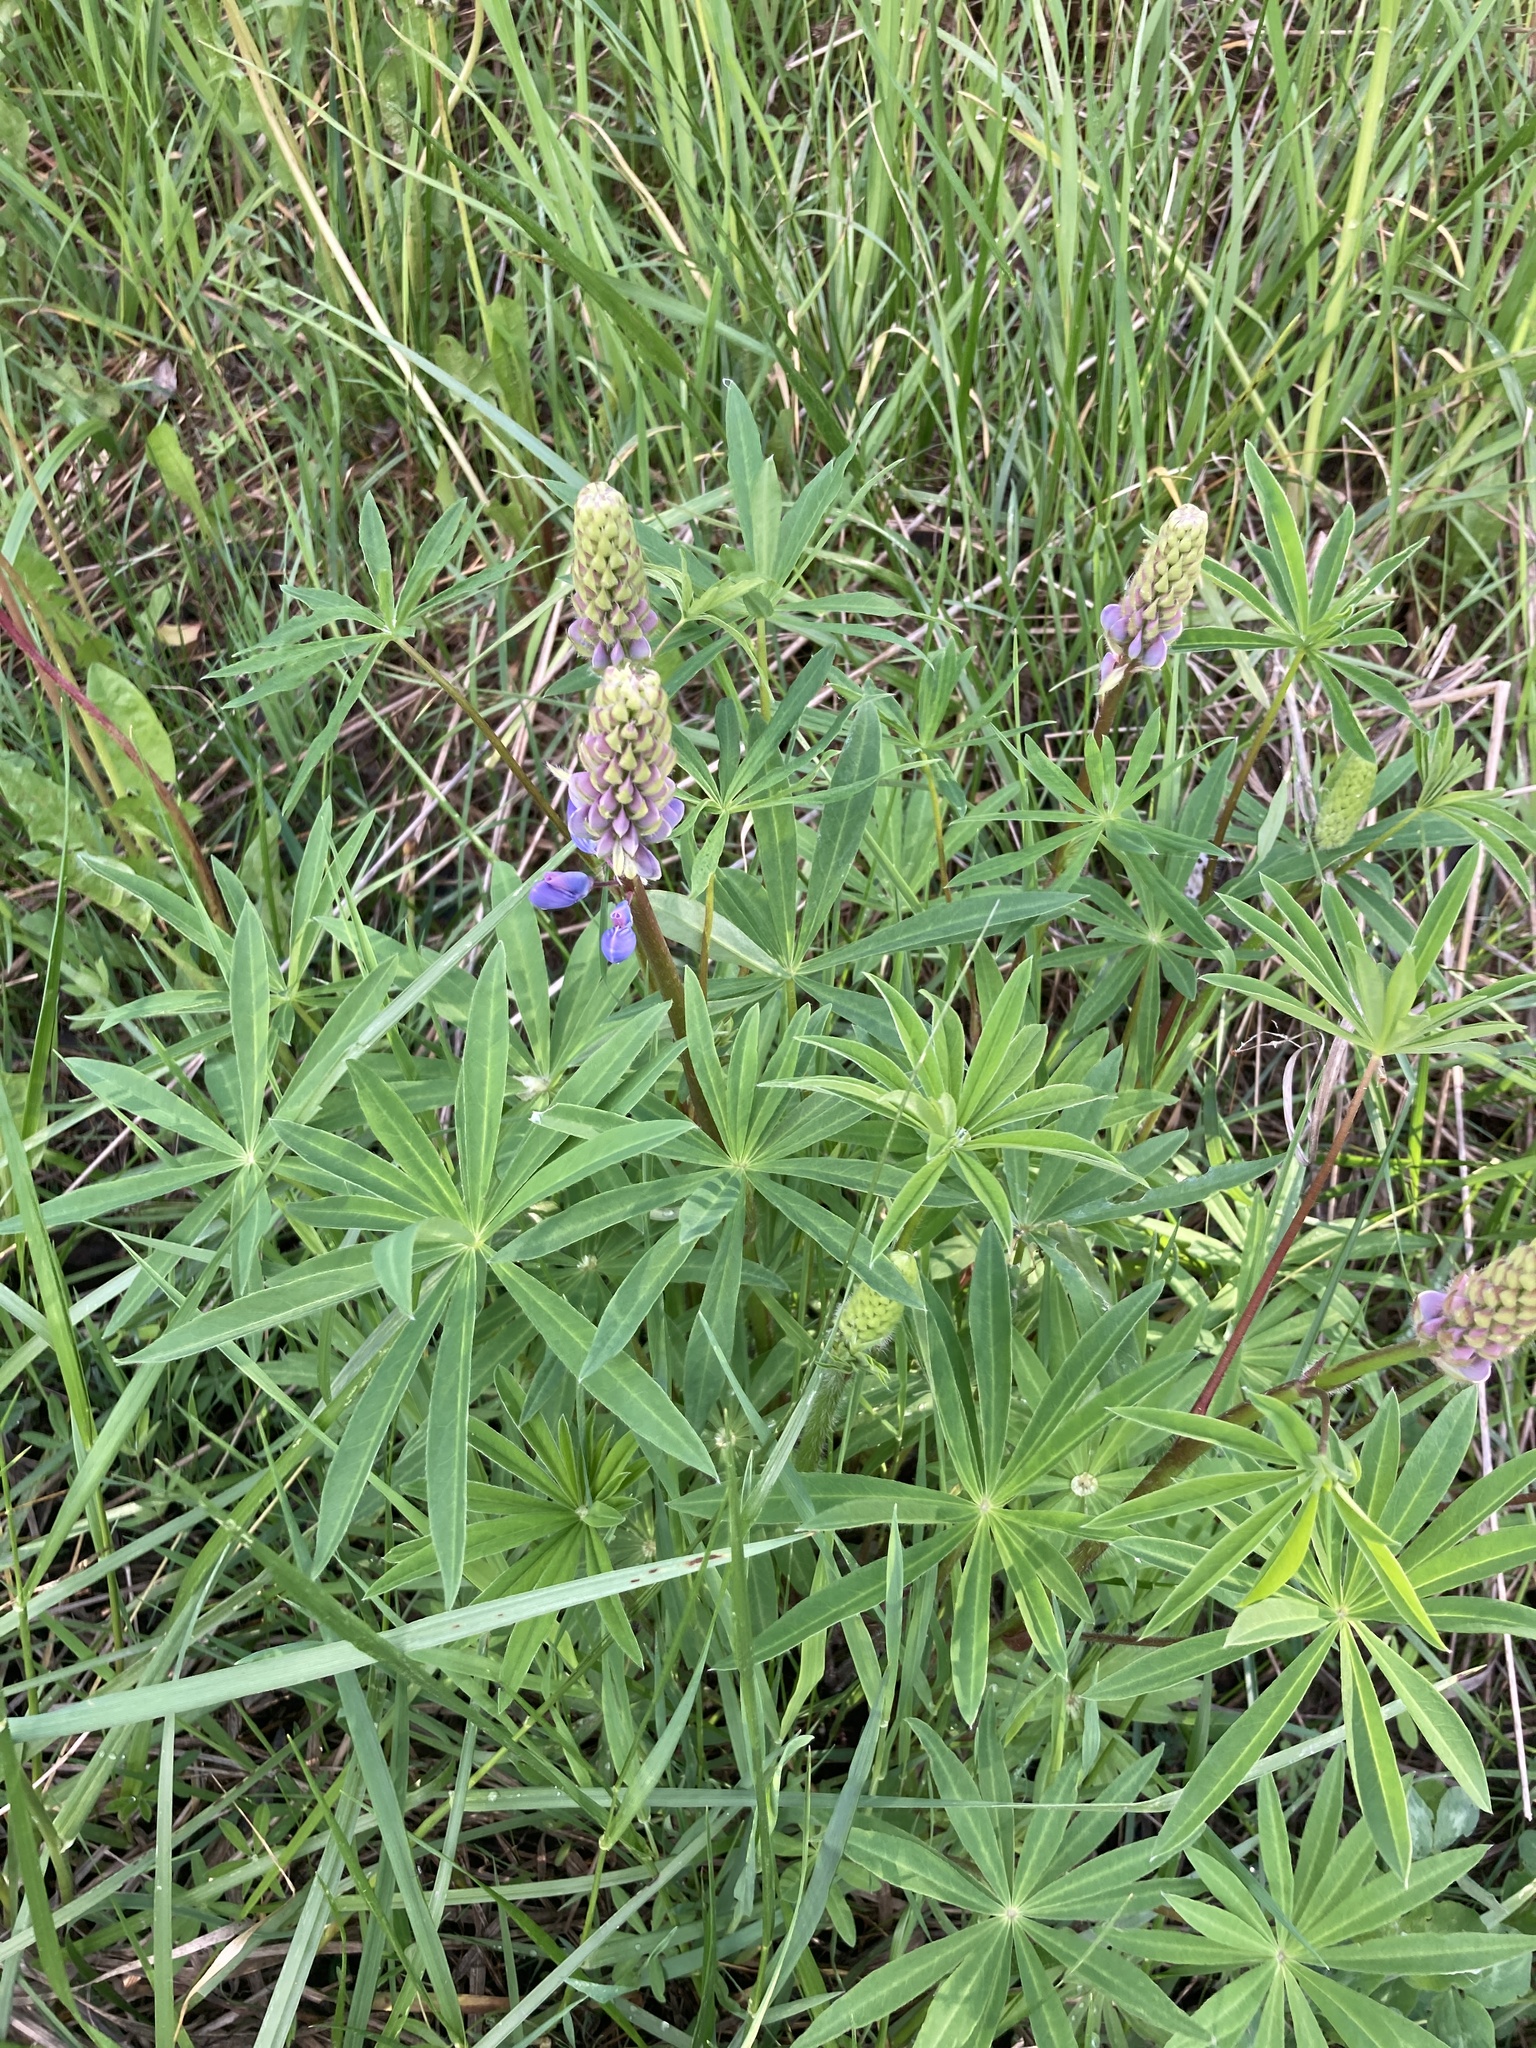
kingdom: Plantae
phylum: Tracheophyta
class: Magnoliopsida
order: Fabales
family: Fabaceae
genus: Lupinus
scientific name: Lupinus polyphyllus
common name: Garden lupin
